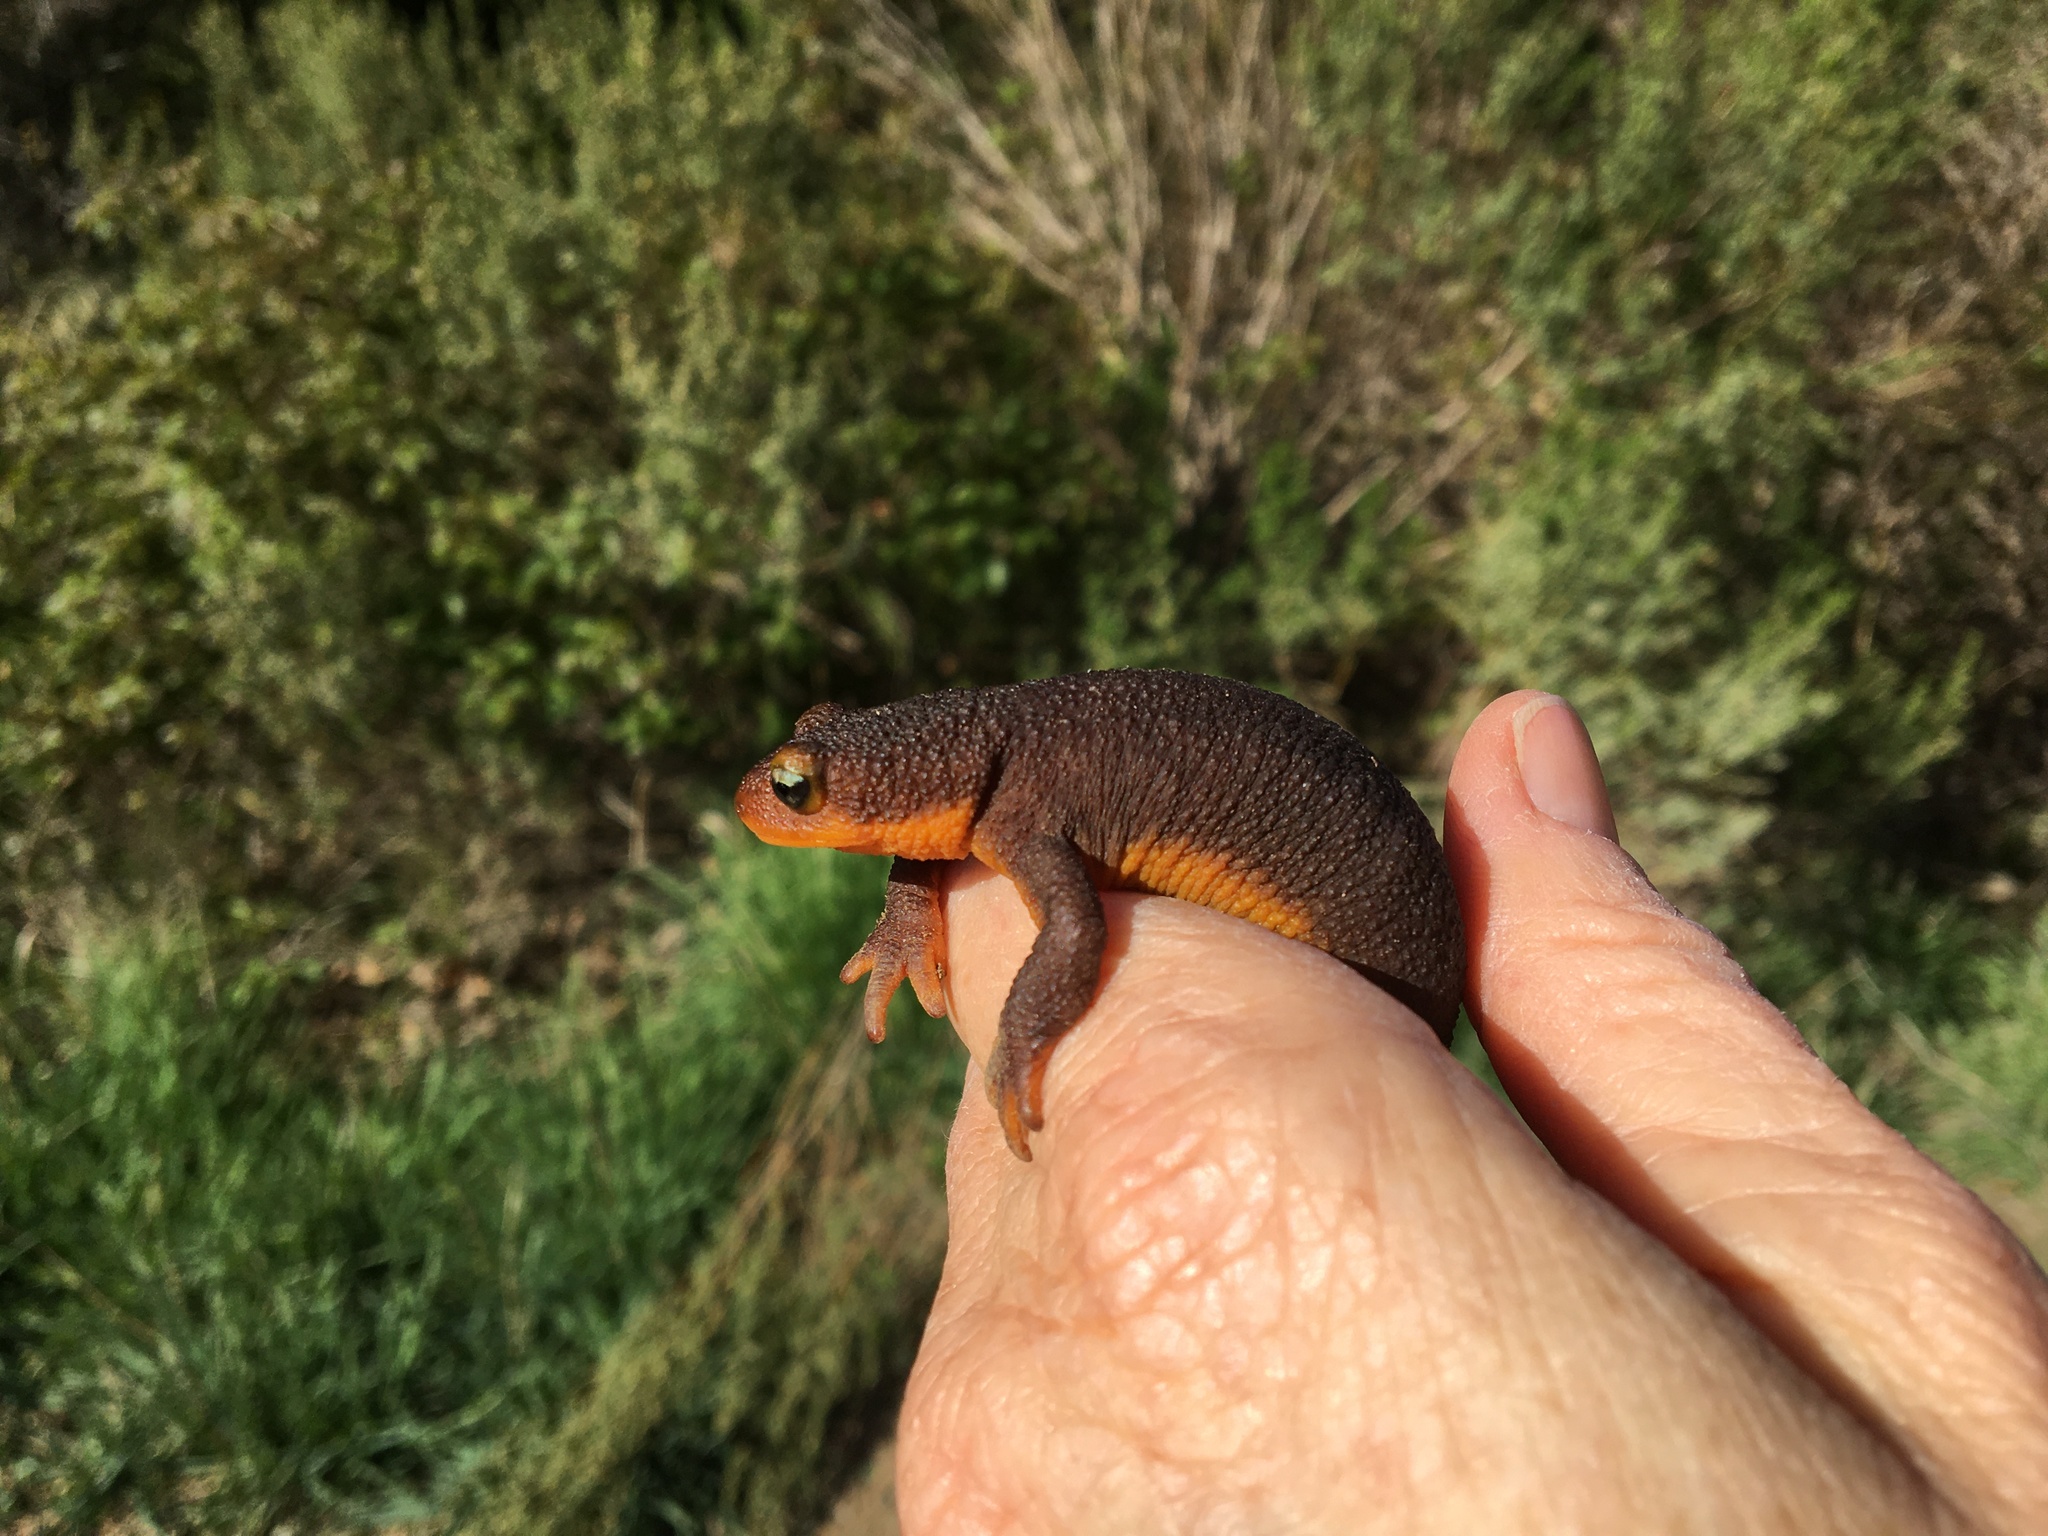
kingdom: Animalia
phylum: Chordata
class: Amphibia
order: Caudata
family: Salamandridae
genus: Taricha
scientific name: Taricha torosa
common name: California newt
